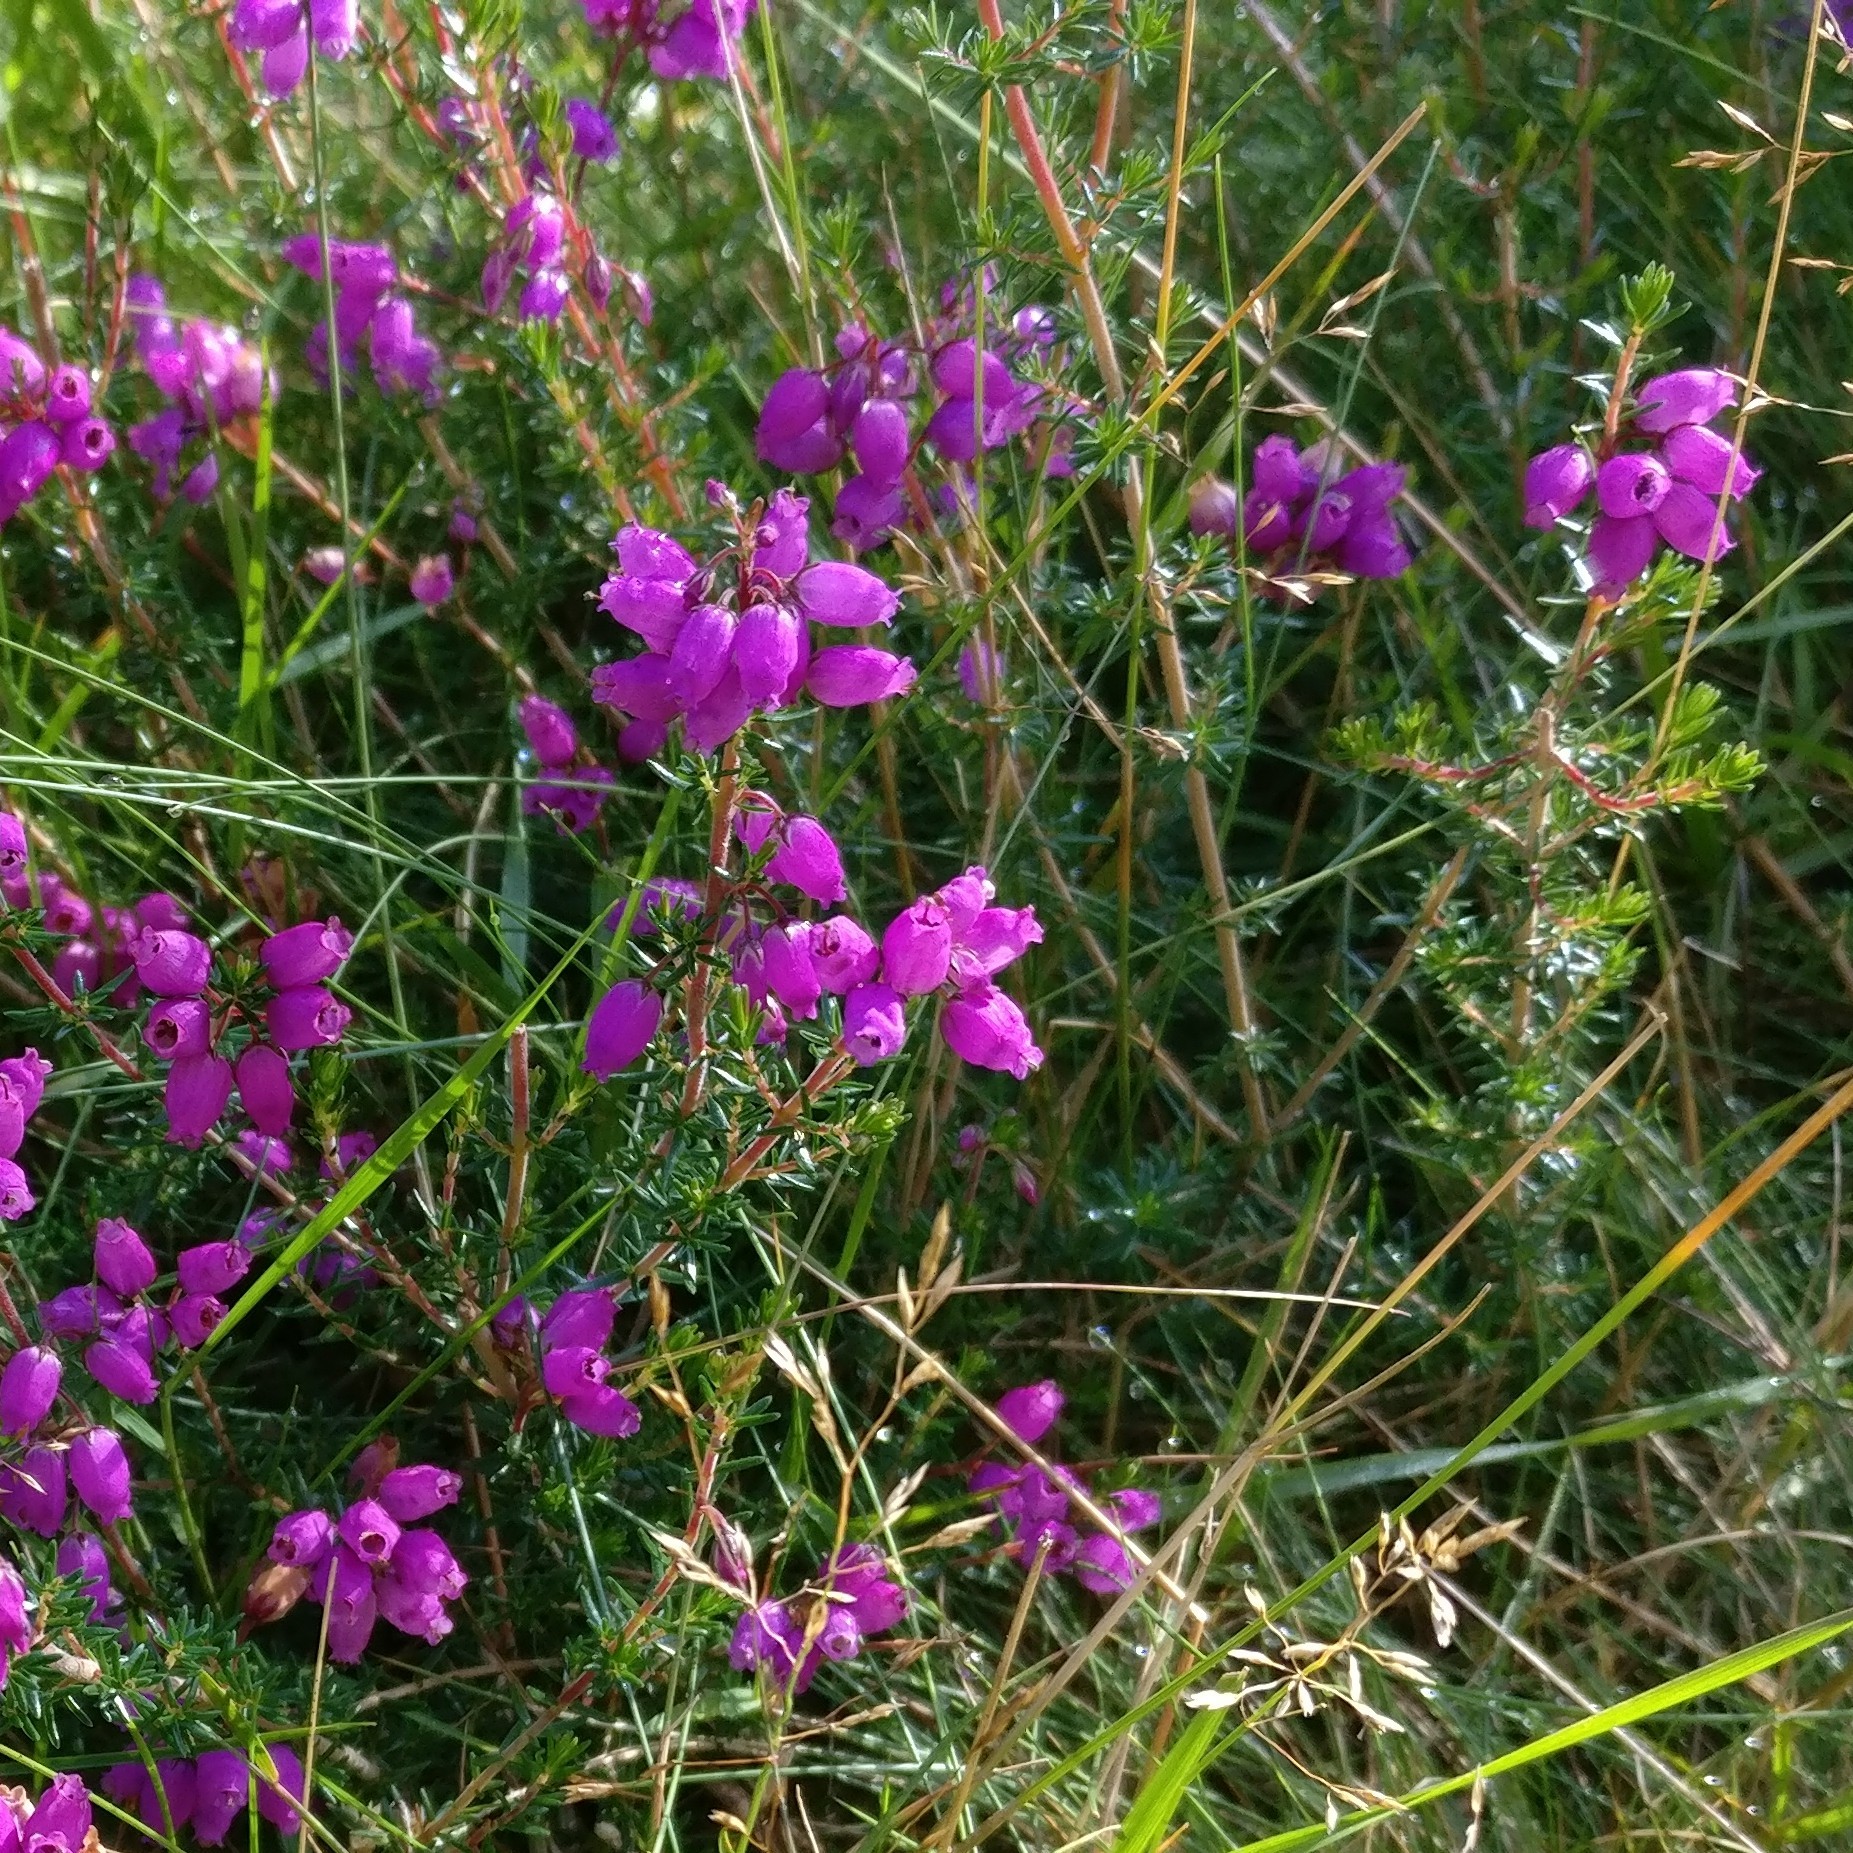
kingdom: Plantae
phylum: Tracheophyta
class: Magnoliopsida
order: Ericales
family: Ericaceae
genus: Erica
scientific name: Erica cinerea
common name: Bell heather
